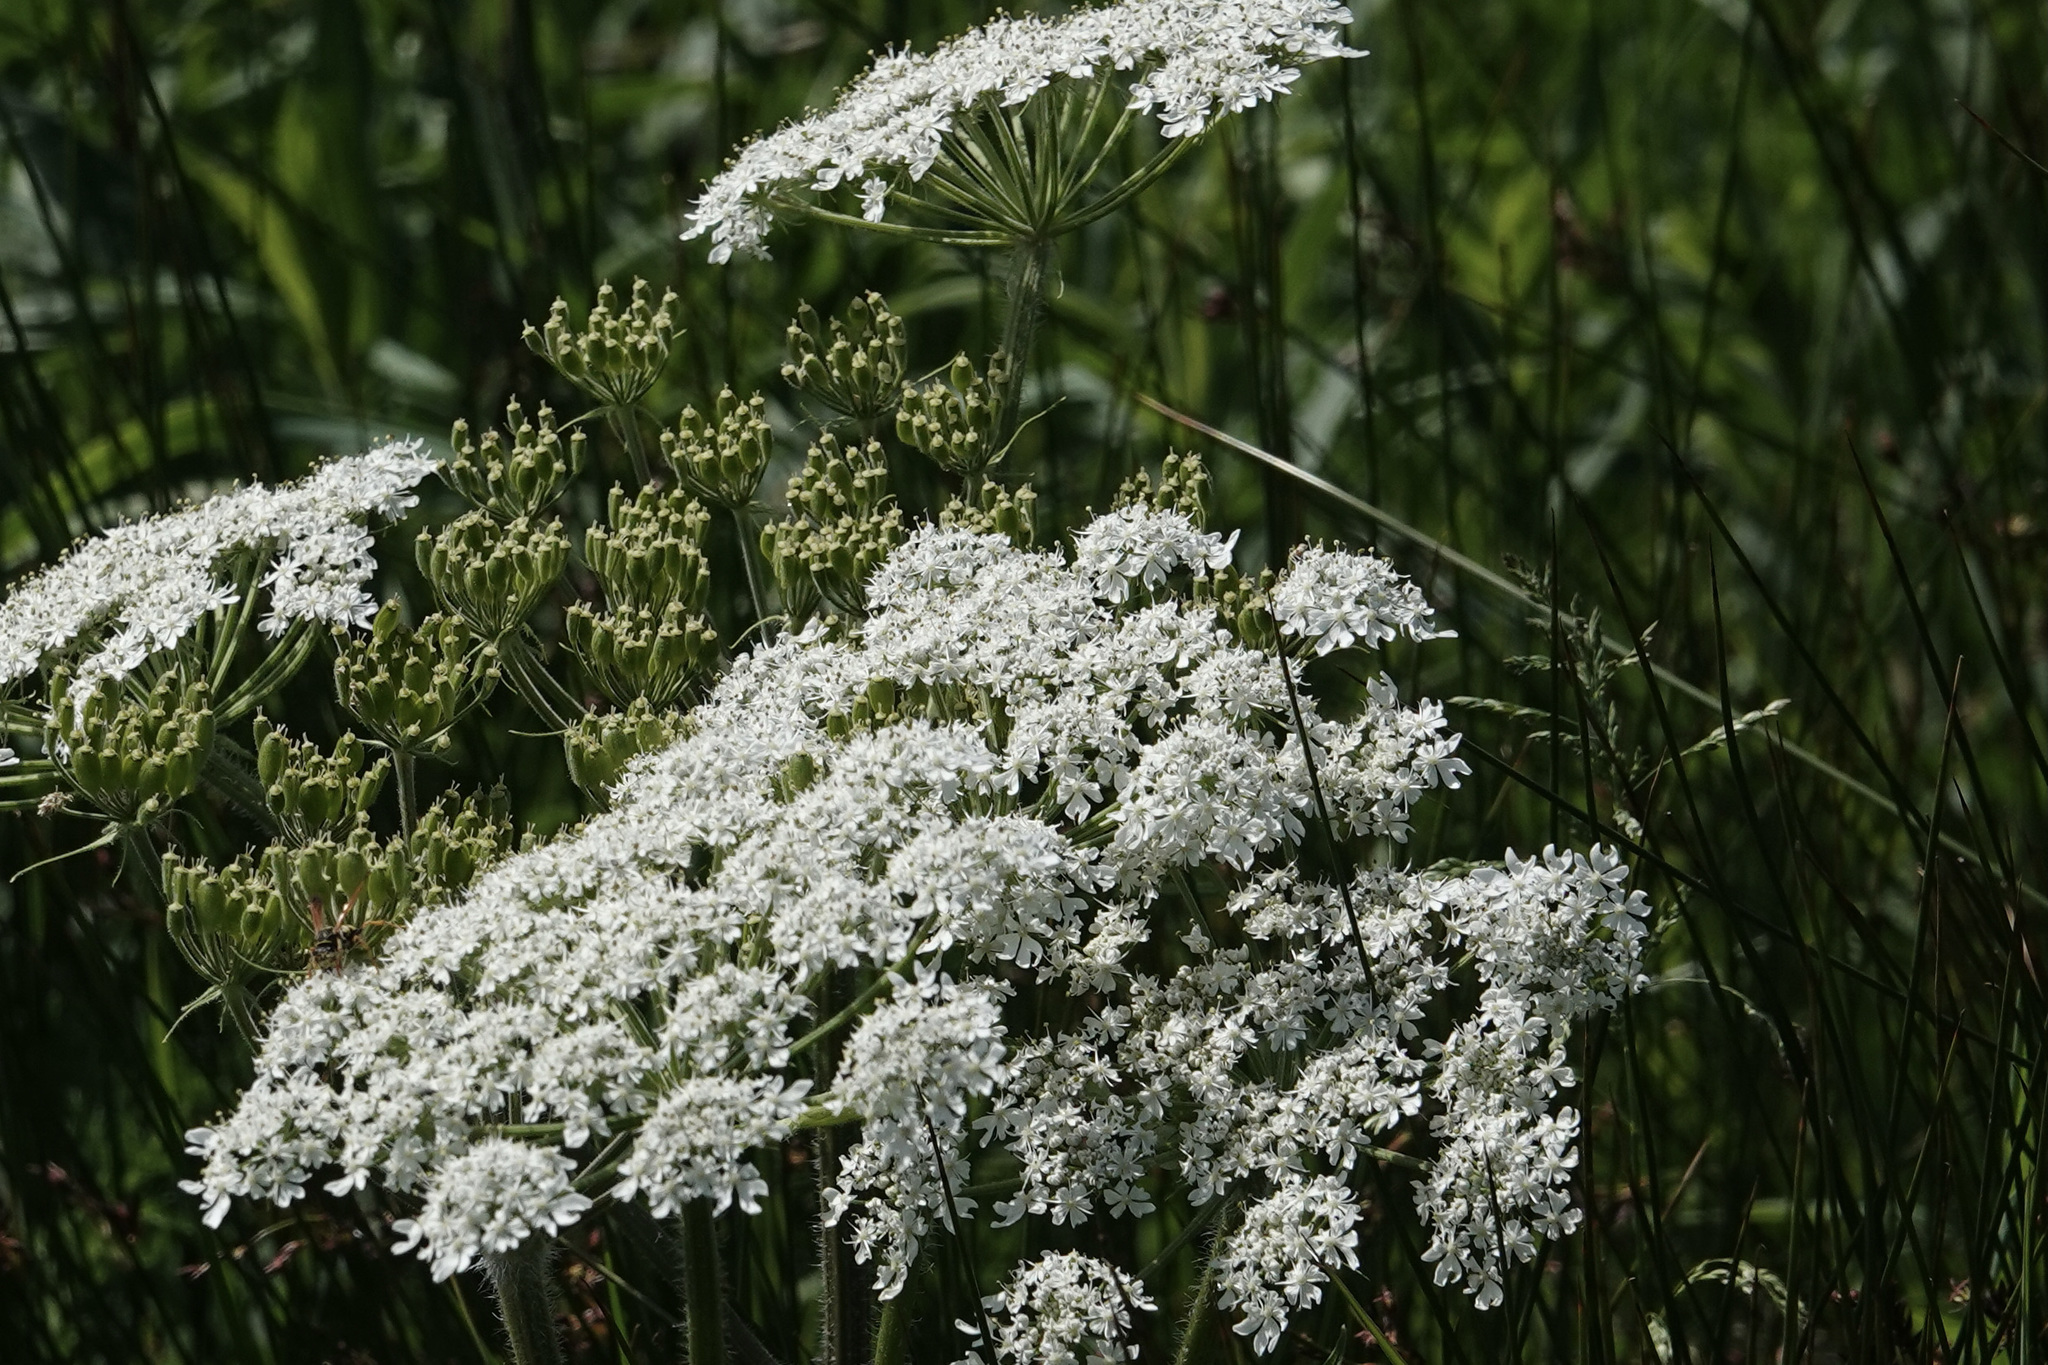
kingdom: Plantae
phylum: Tracheophyta
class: Magnoliopsida
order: Apiales
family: Apiaceae
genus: Heracleum
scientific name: Heracleum maximum
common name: American cow parsnip
